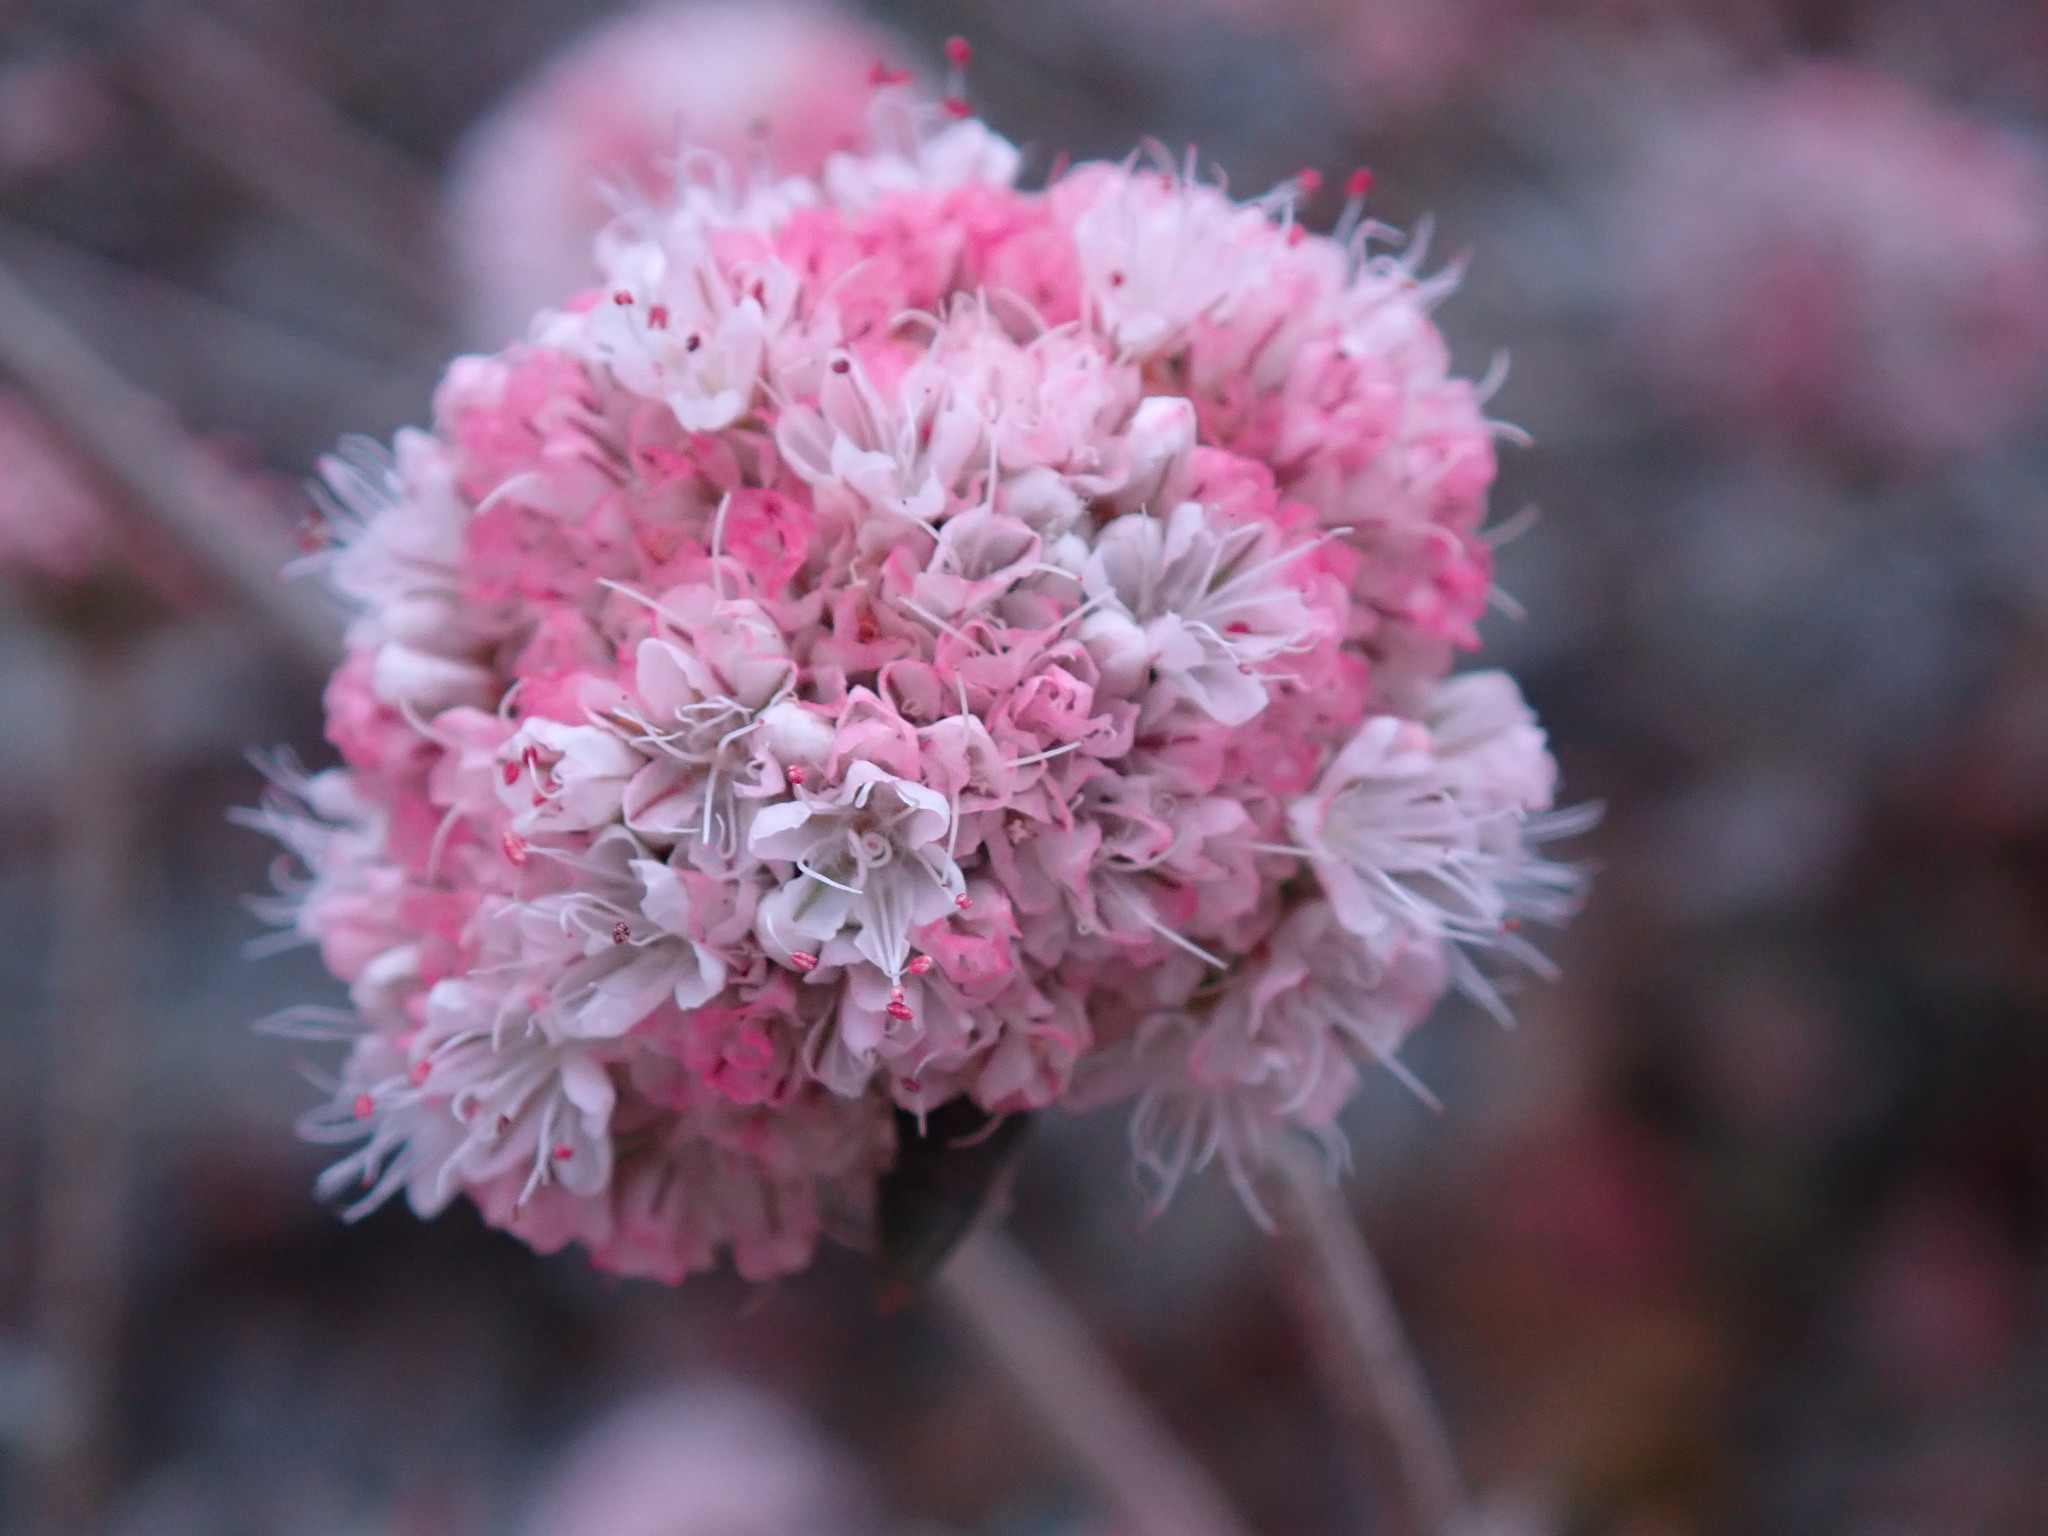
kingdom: Plantae
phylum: Tracheophyta
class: Magnoliopsida
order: Caryophyllales
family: Polygonaceae
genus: Eriogonum
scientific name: Eriogonum parvifolium
